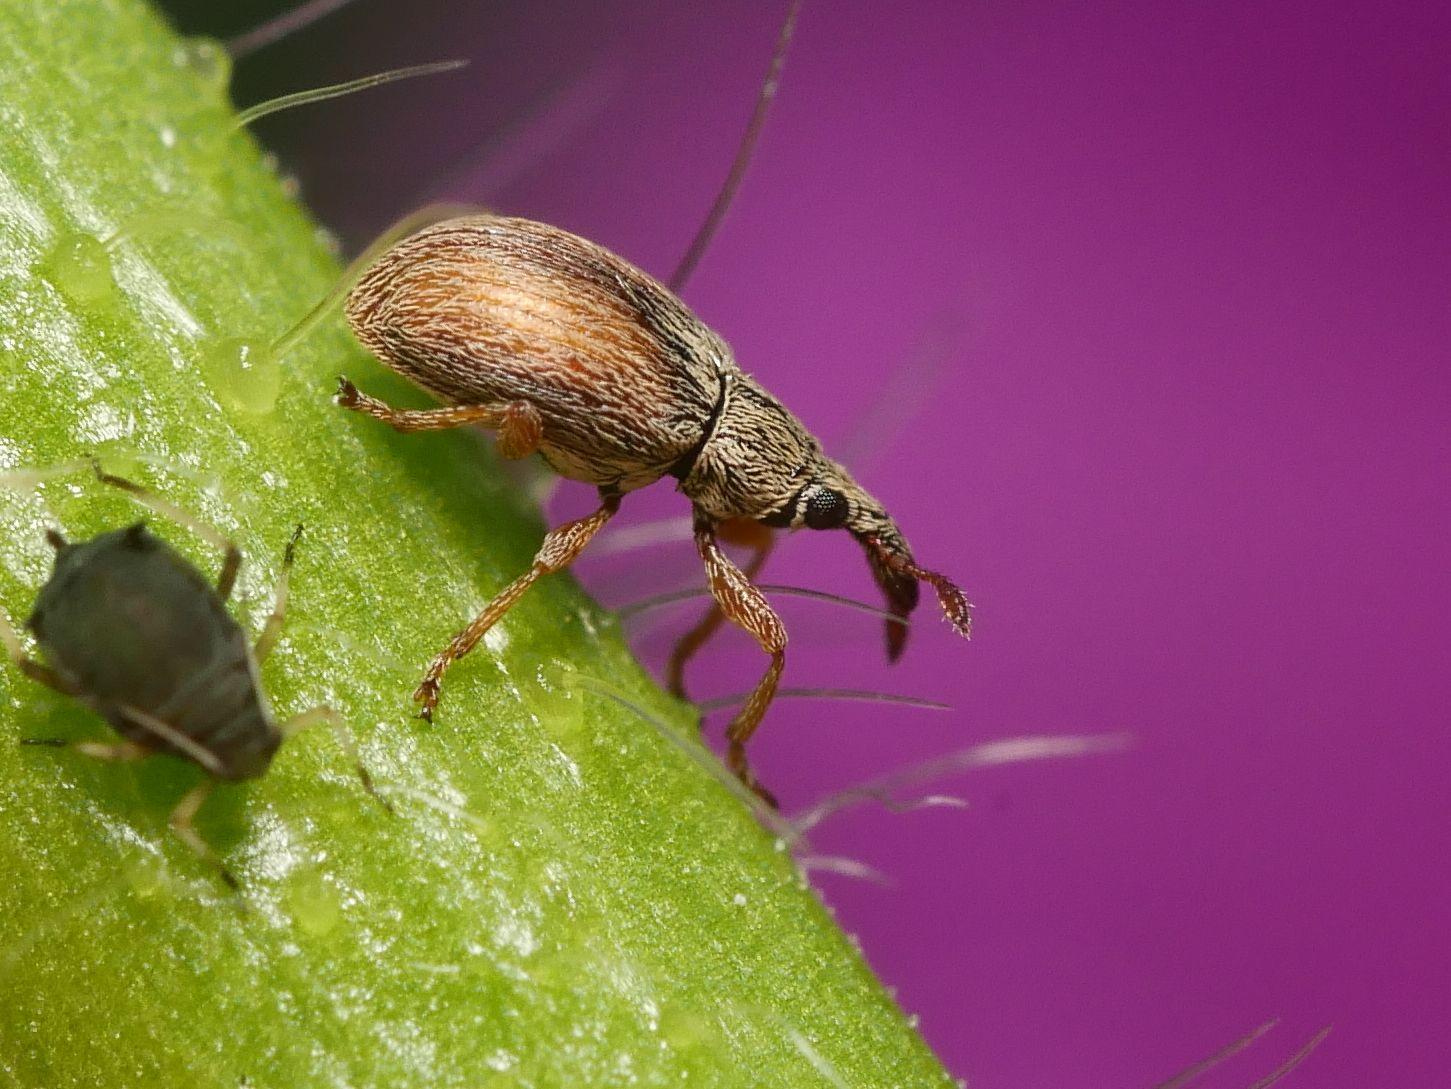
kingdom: Animalia
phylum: Arthropoda
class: Insecta
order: Coleoptera
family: Apionidae
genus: Malvapion
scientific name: Malvapion malvae
